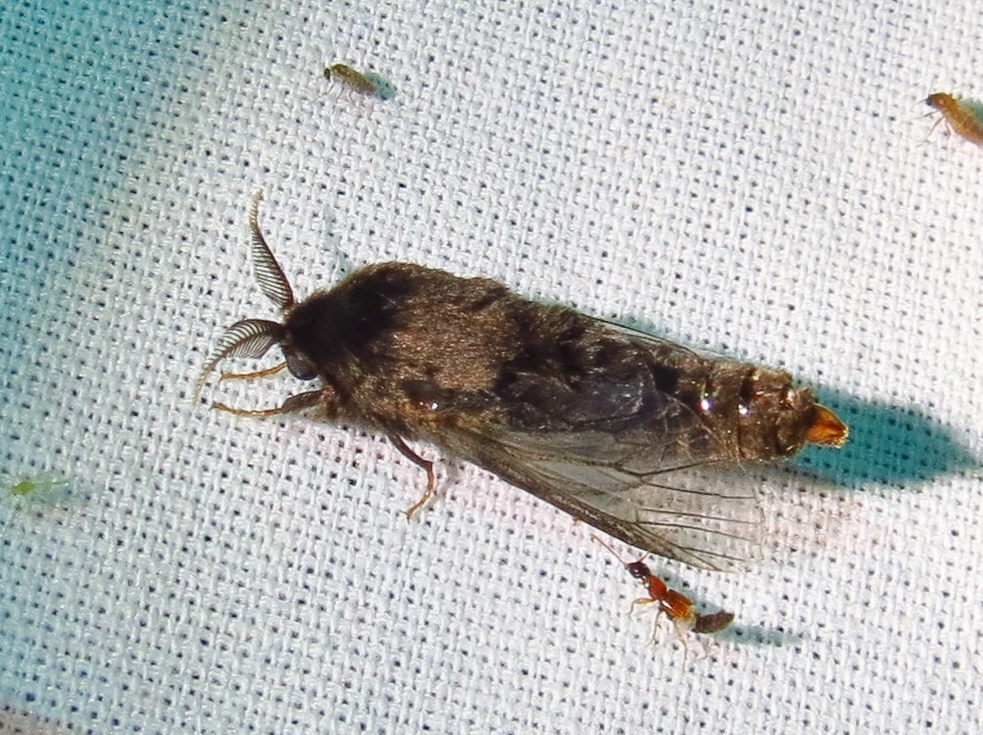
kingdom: Animalia
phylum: Arthropoda
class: Insecta
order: Lepidoptera
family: Psychidae
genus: Thyridopteryx
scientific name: Thyridopteryx ephemeraeformis
